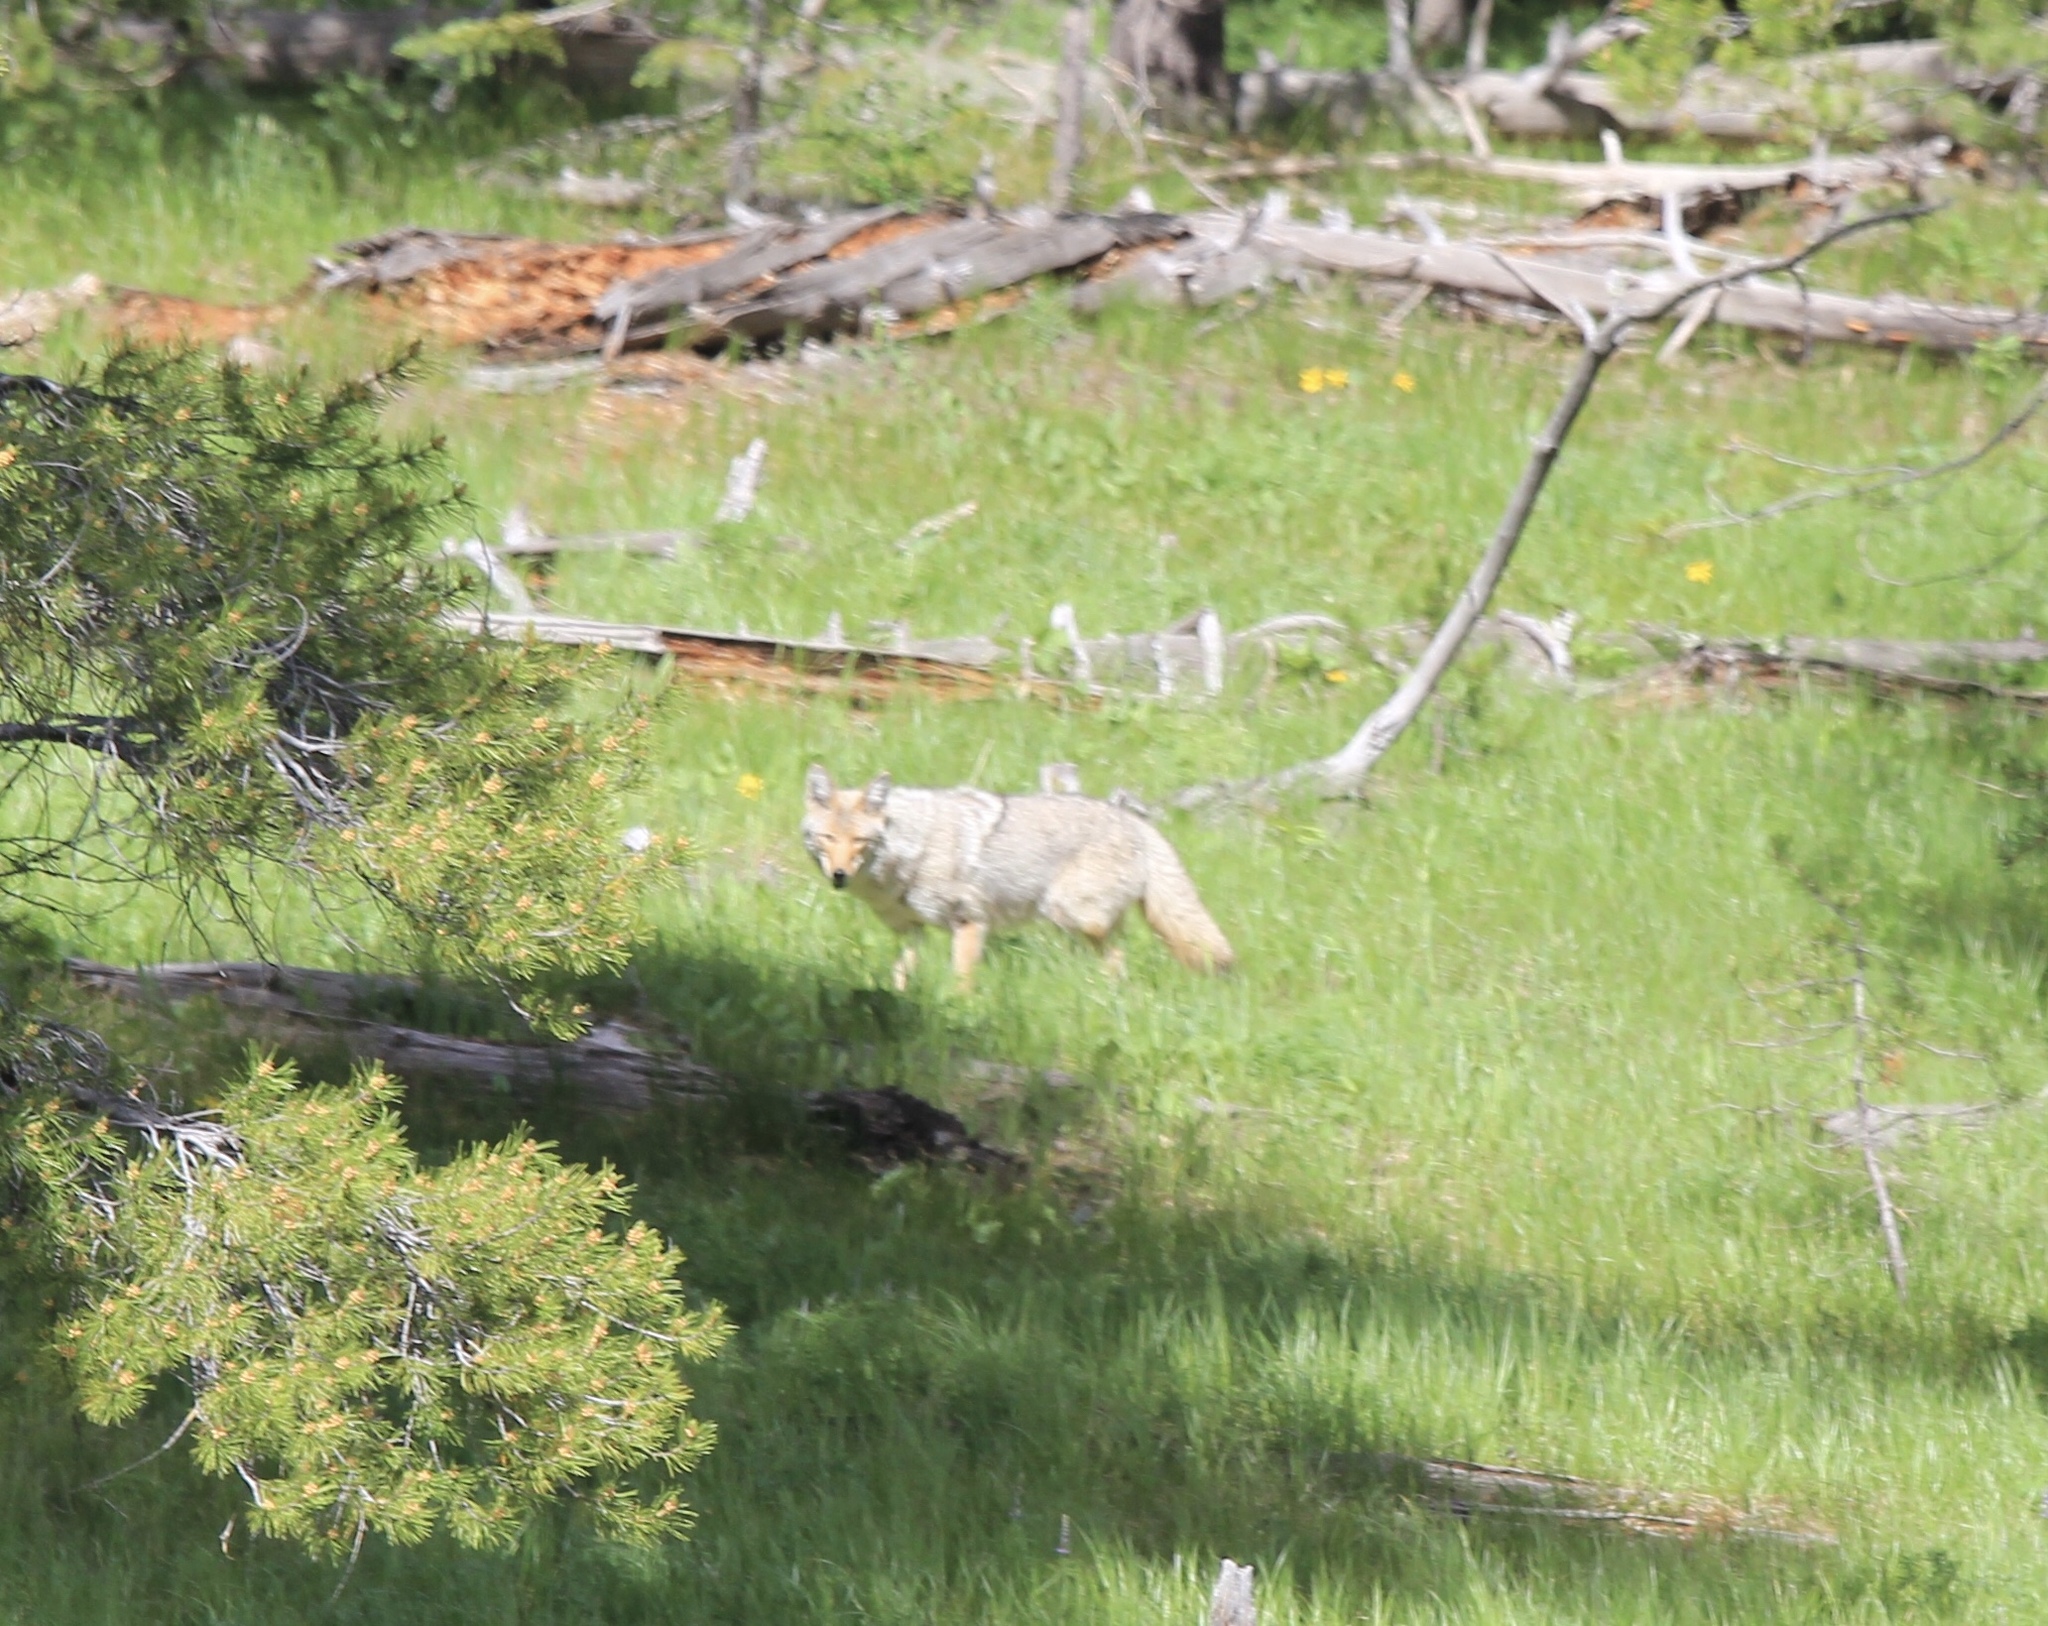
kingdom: Animalia
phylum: Chordata
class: Mammalia
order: Carnivora
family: Canidae
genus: Canis
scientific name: Canis latrans
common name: Coyote
